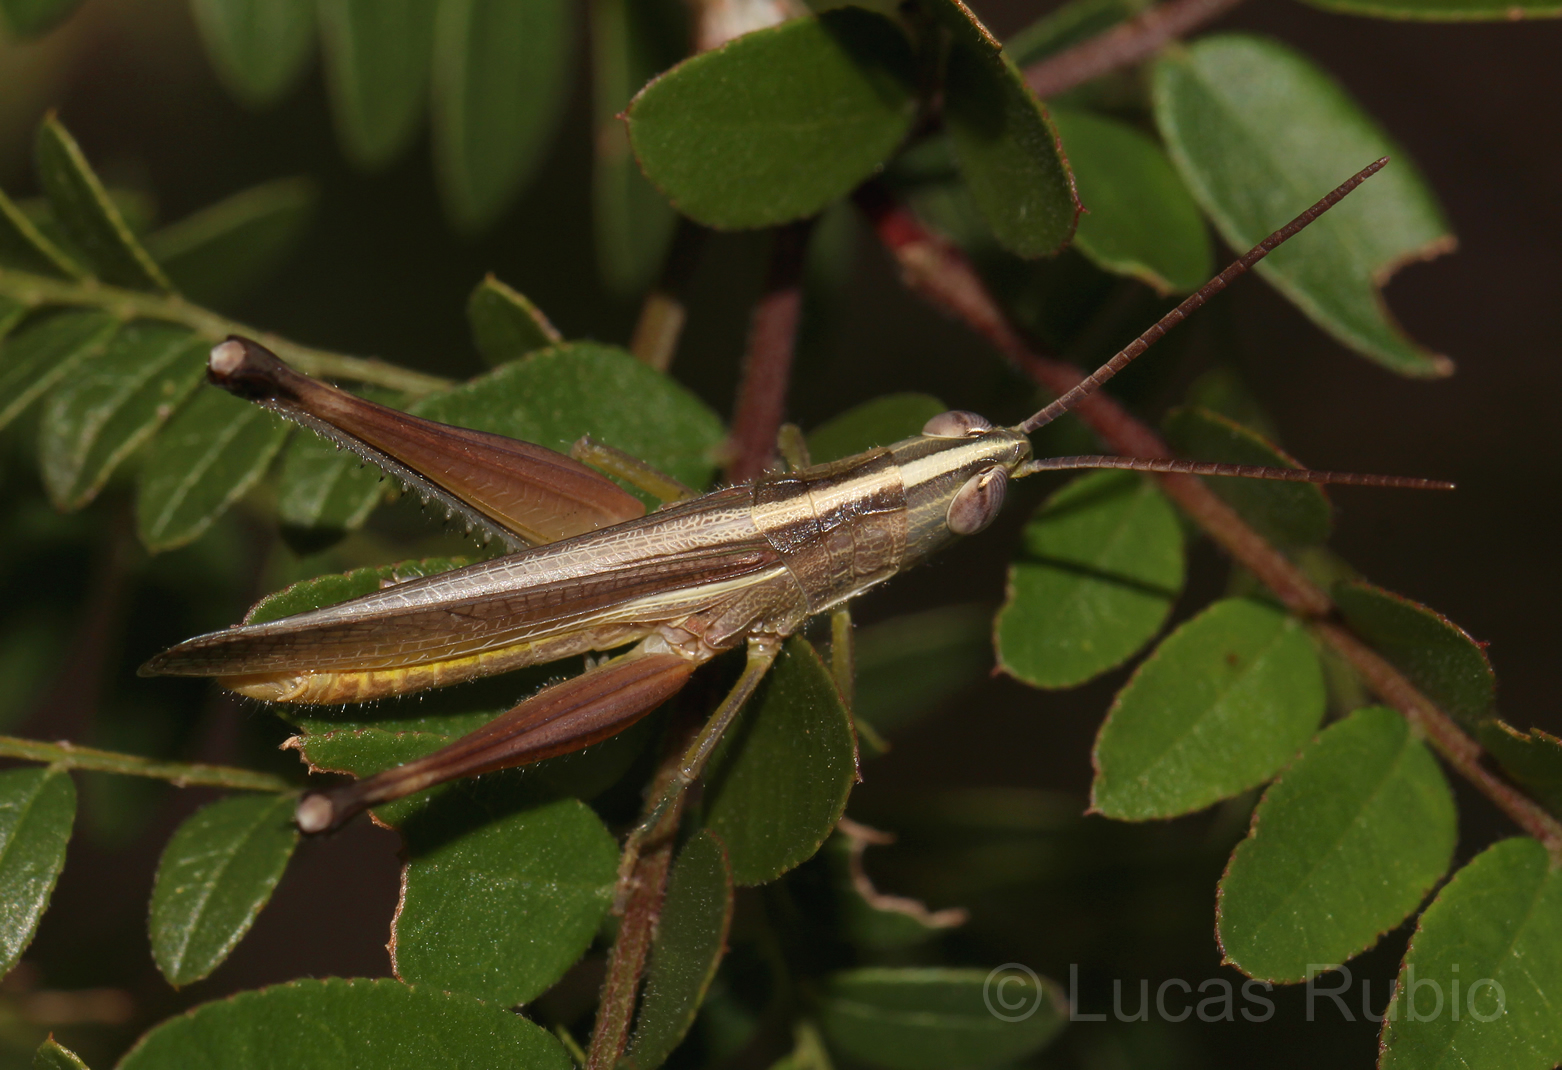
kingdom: Animalia
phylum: Arthropoda
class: Insecta
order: Orthoptera
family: Acrididae
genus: Staurorhectus
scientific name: Staurorhectus longicornis
